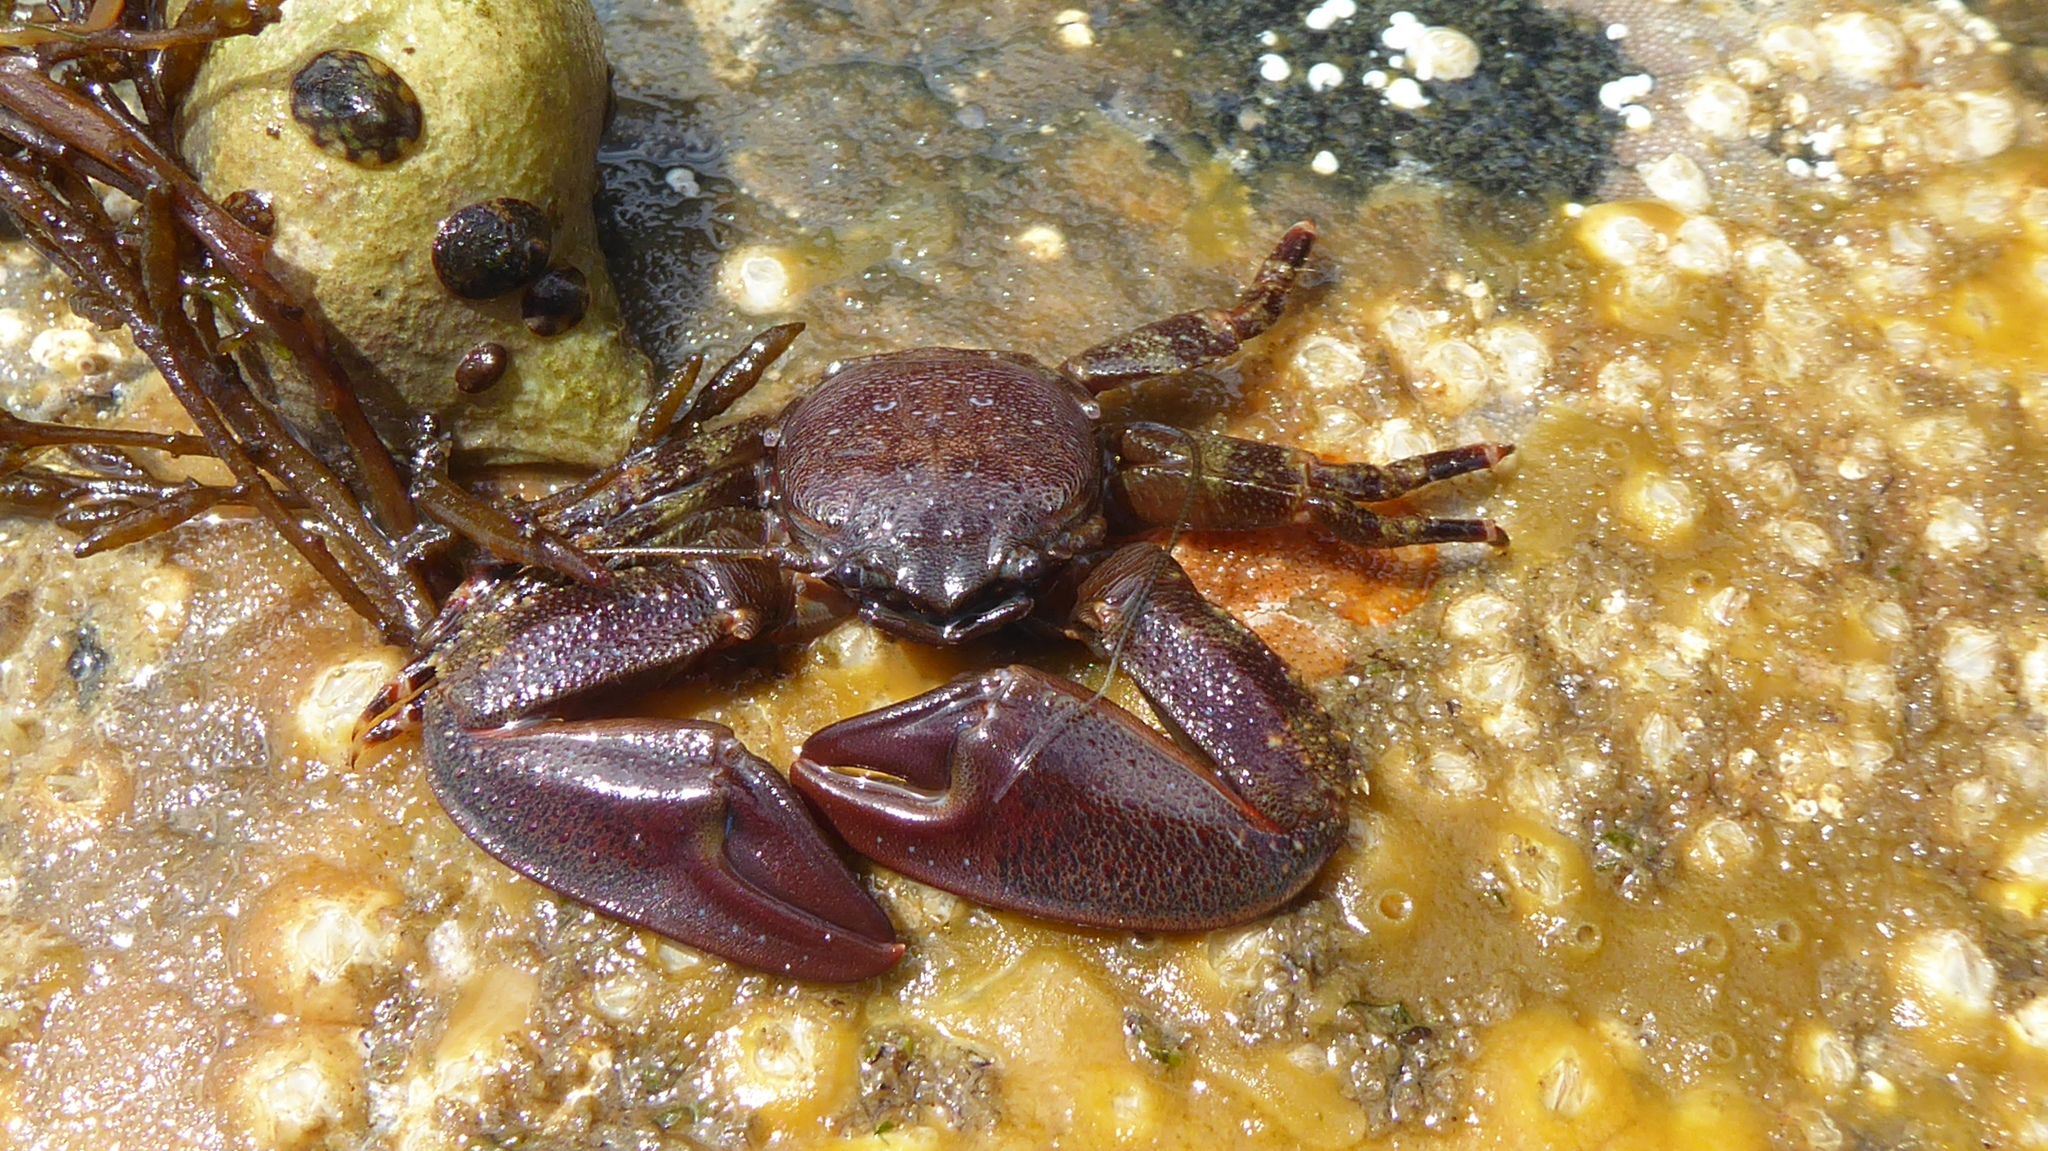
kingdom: Animalia
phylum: Arthropoda
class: Malacostraca
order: Decapoda
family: Porcellanidae
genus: Petrolisthes
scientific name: Petrolisthes eriomerus
